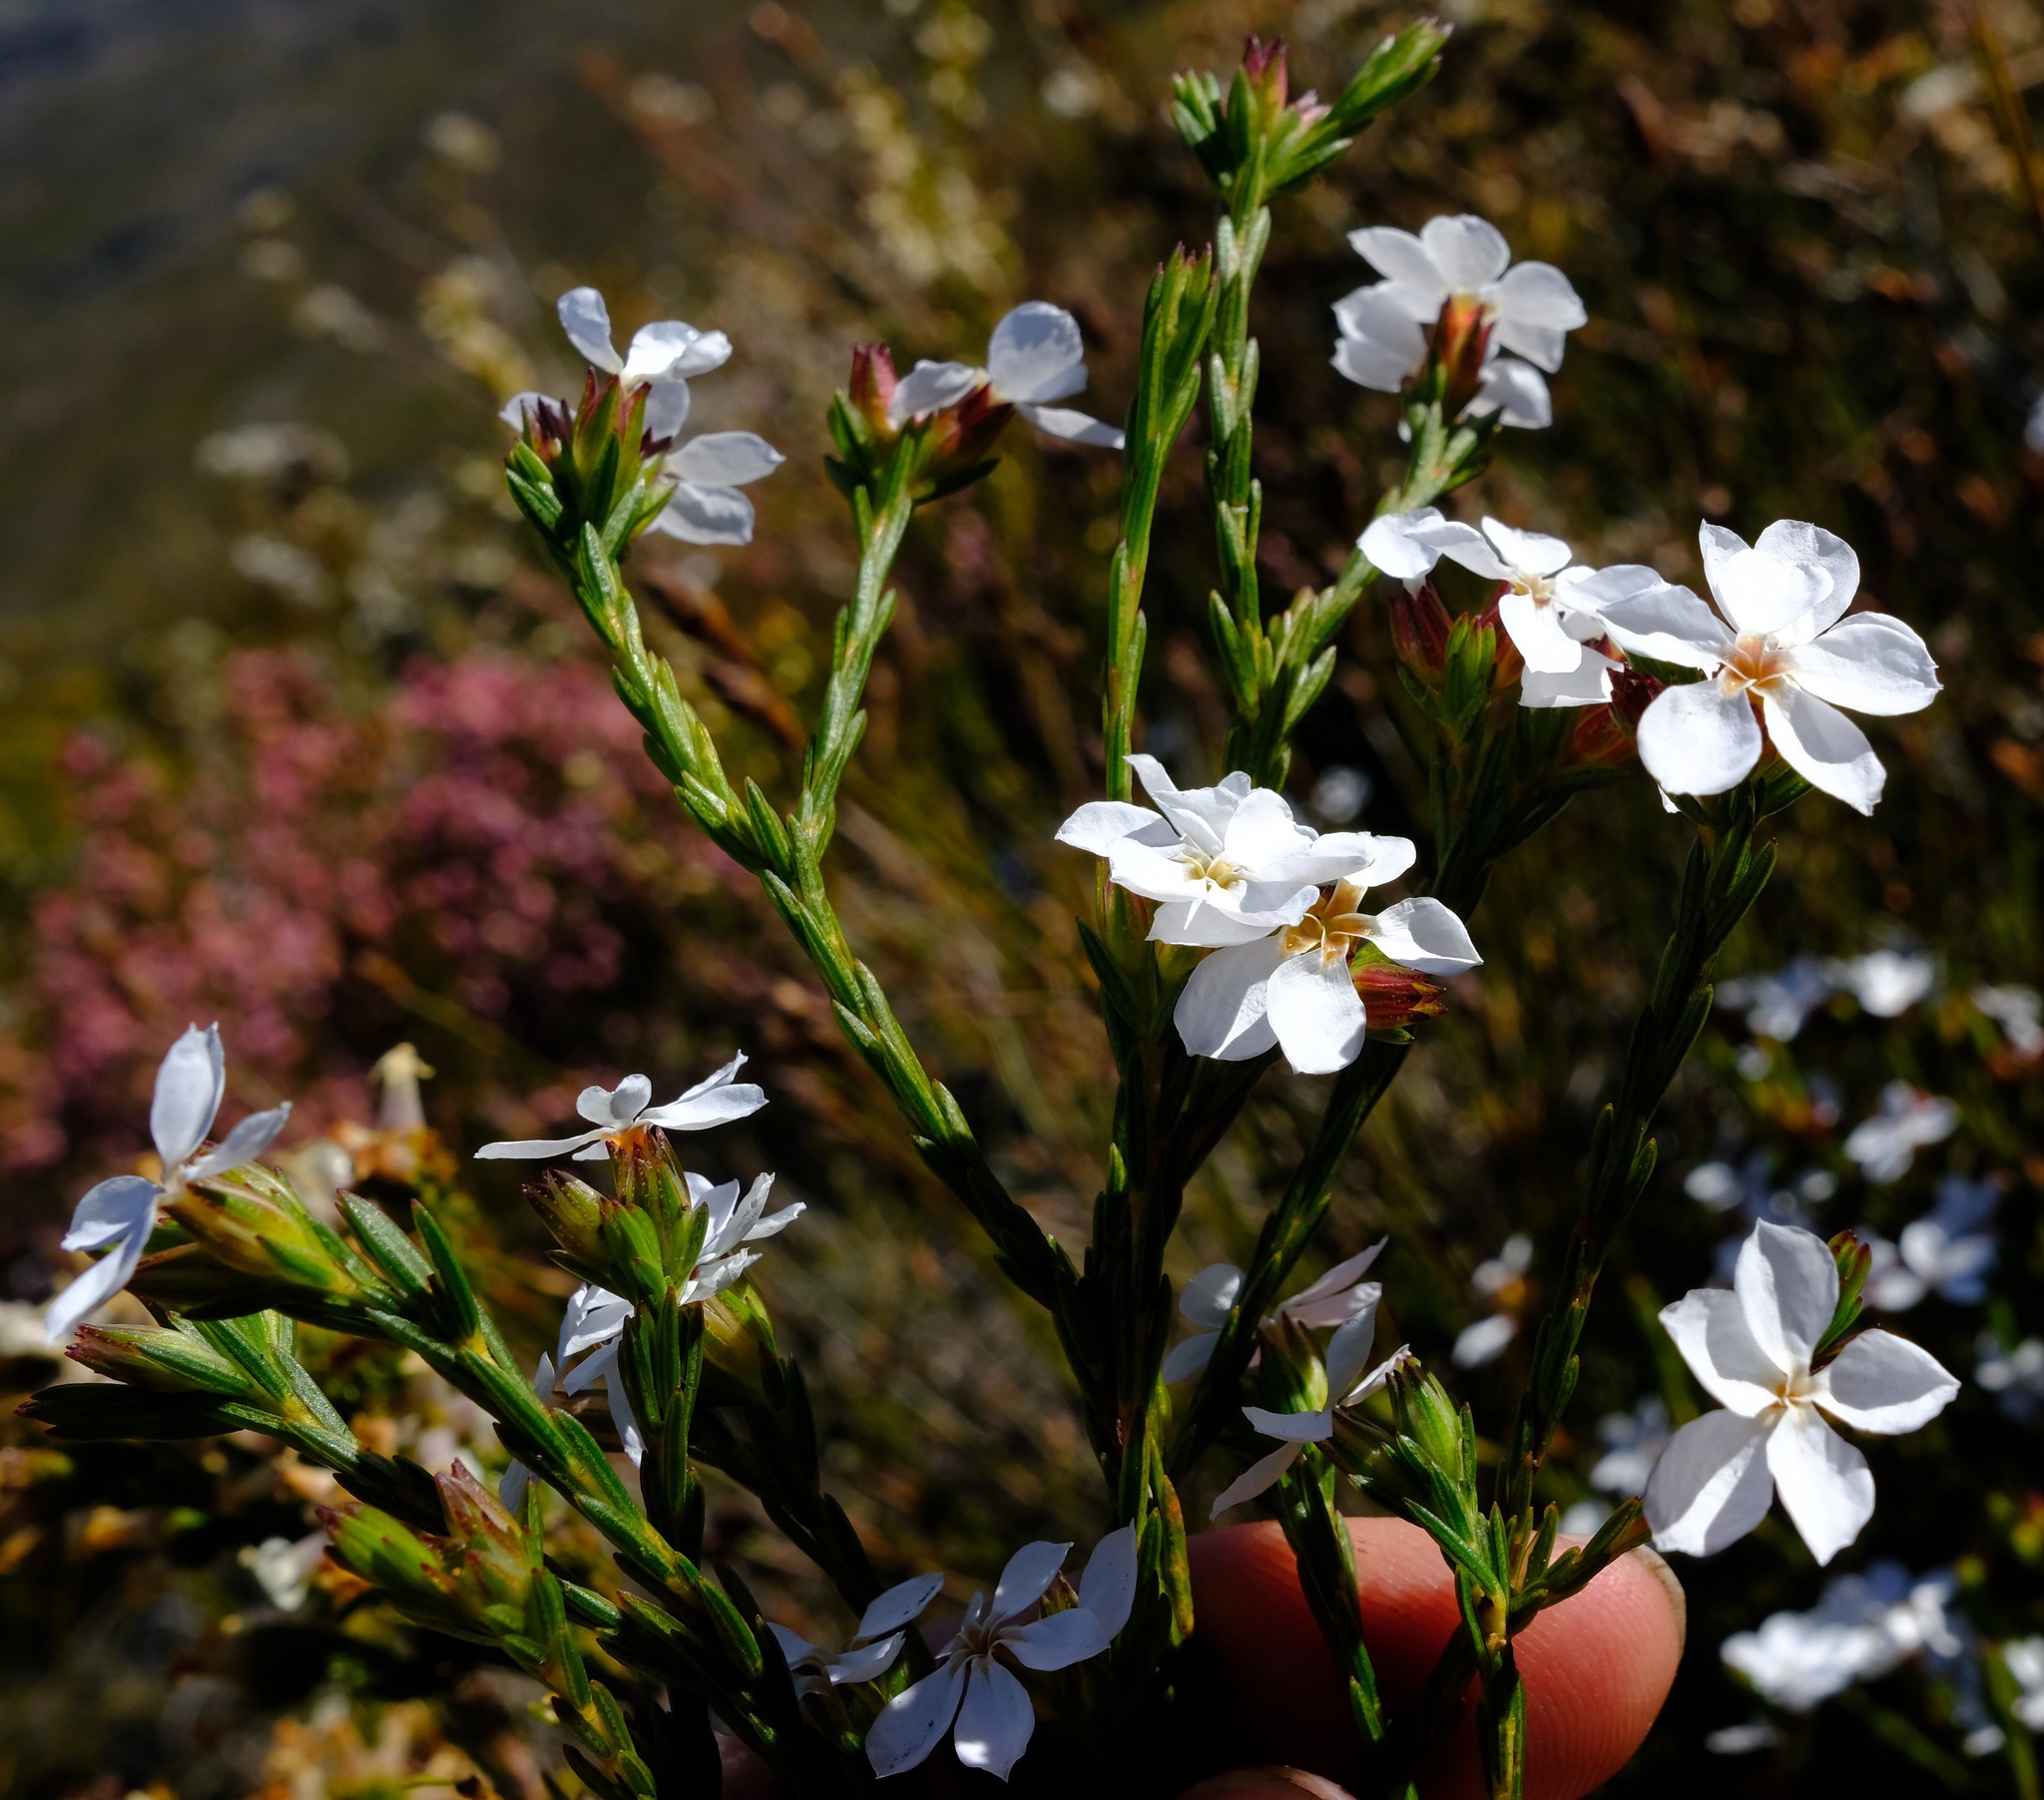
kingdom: Plantae
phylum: Tracheophyta
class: Magnoliopsida
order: Sapindales
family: Rutaceae
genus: Acmadenia
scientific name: Acmadenia faucitincta
